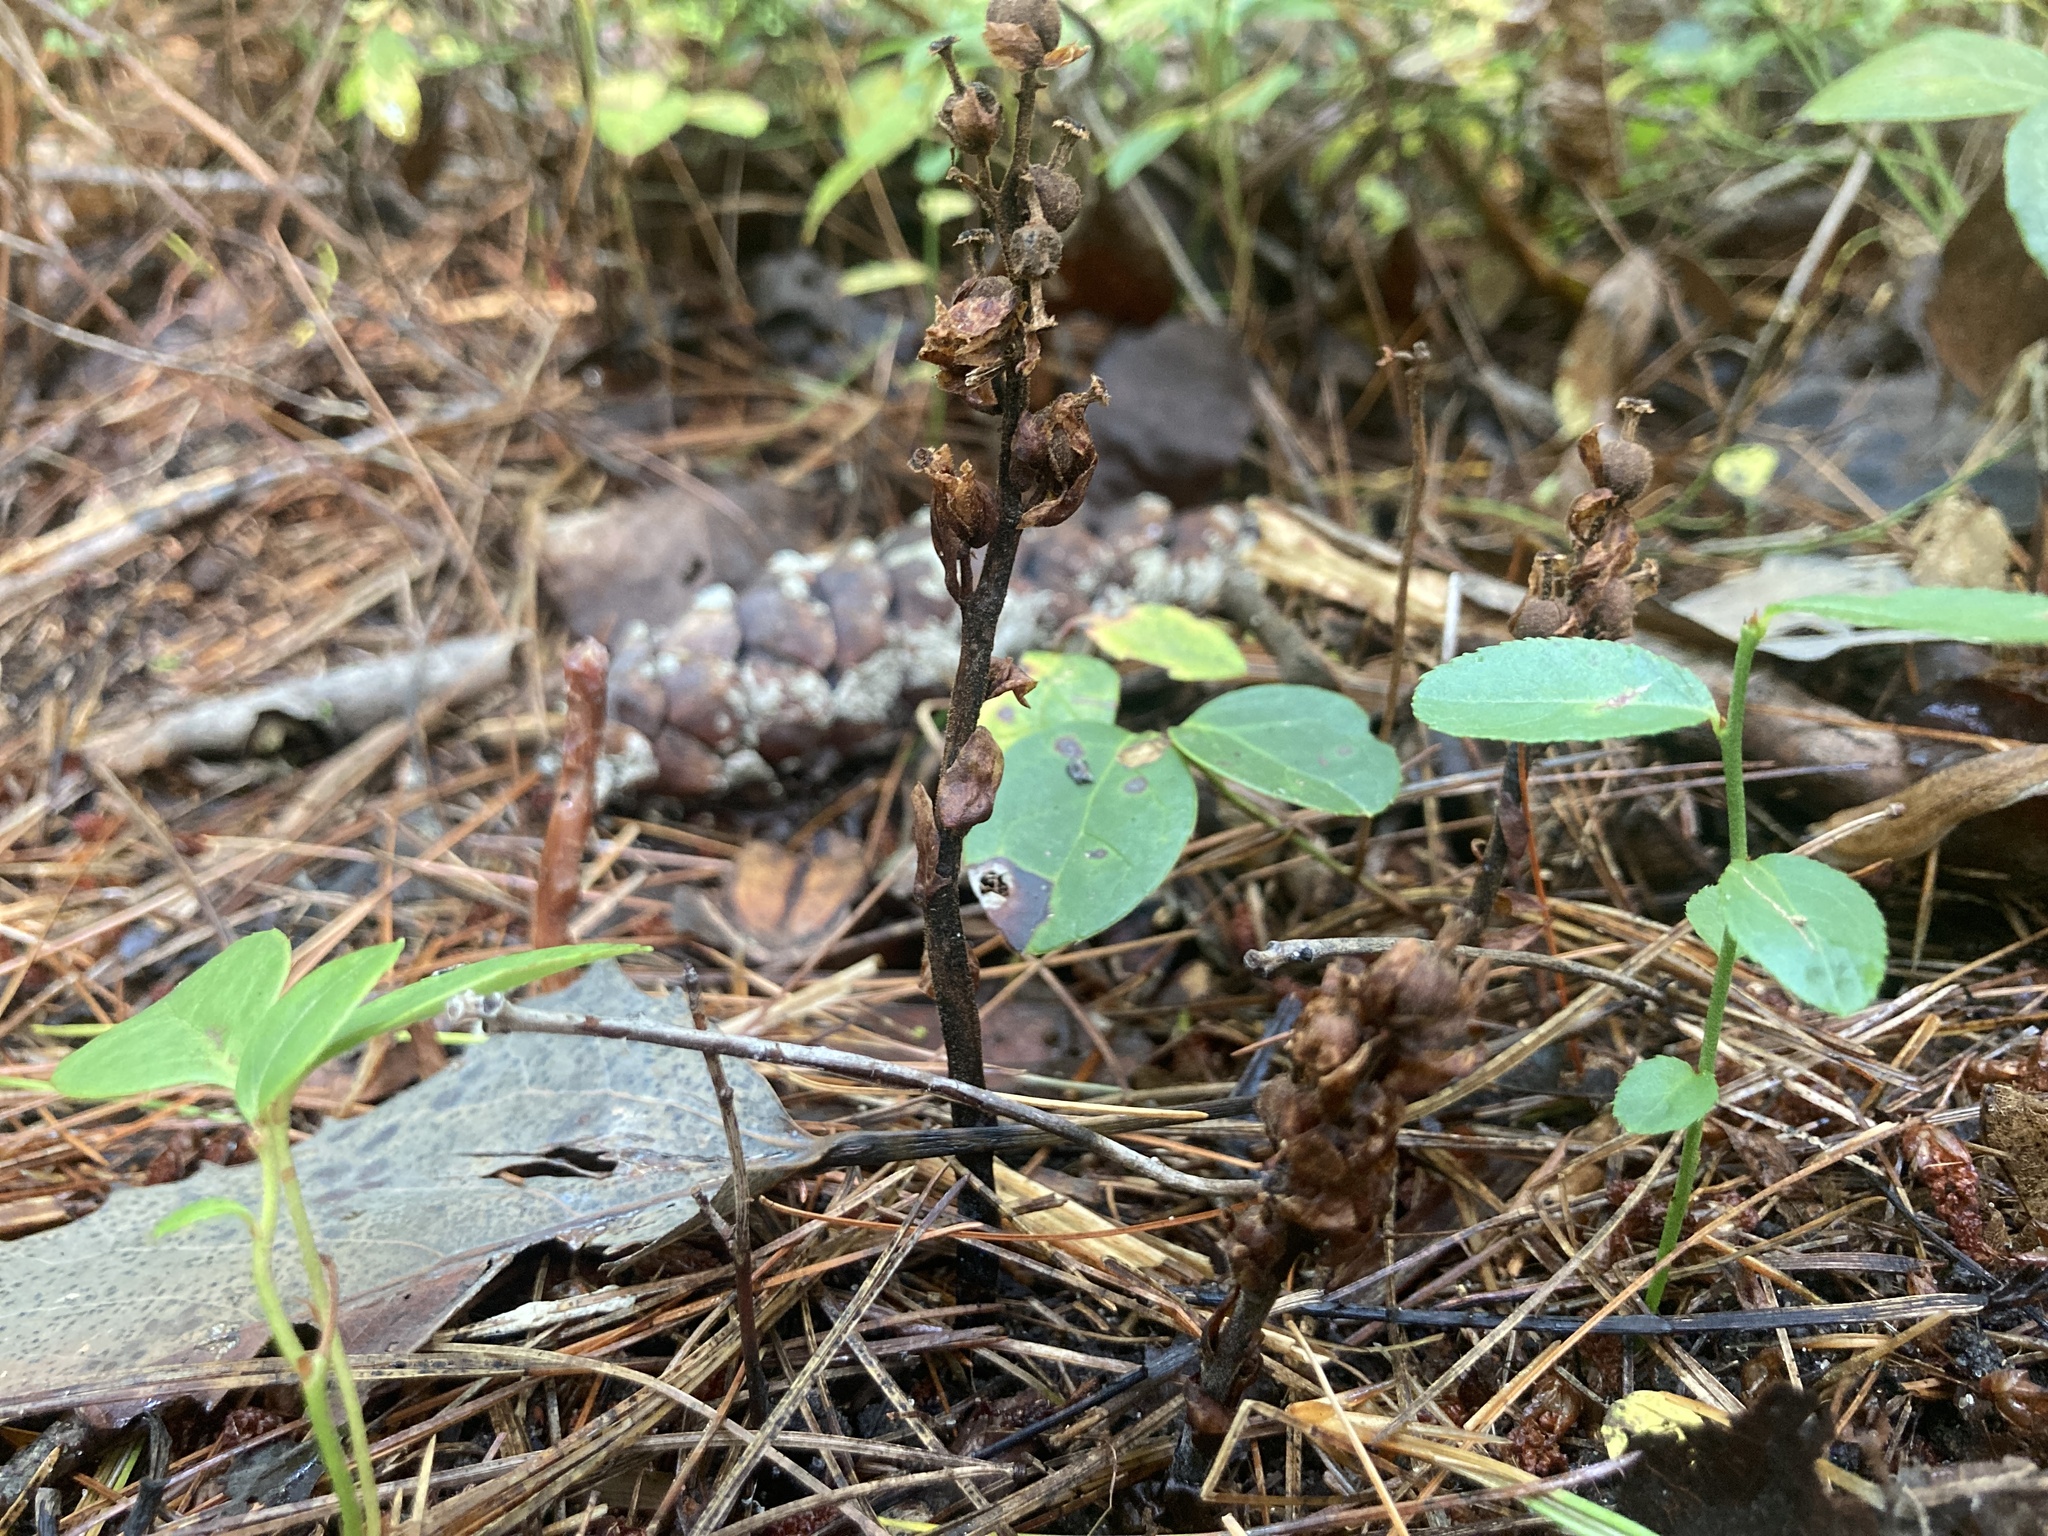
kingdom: Plantae
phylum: Tracheophyta
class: Magnoliopsida
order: Ericales
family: Ericaceae
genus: Hypopitys
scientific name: Hypopitys monotropa
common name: Yellow bird's-nest
